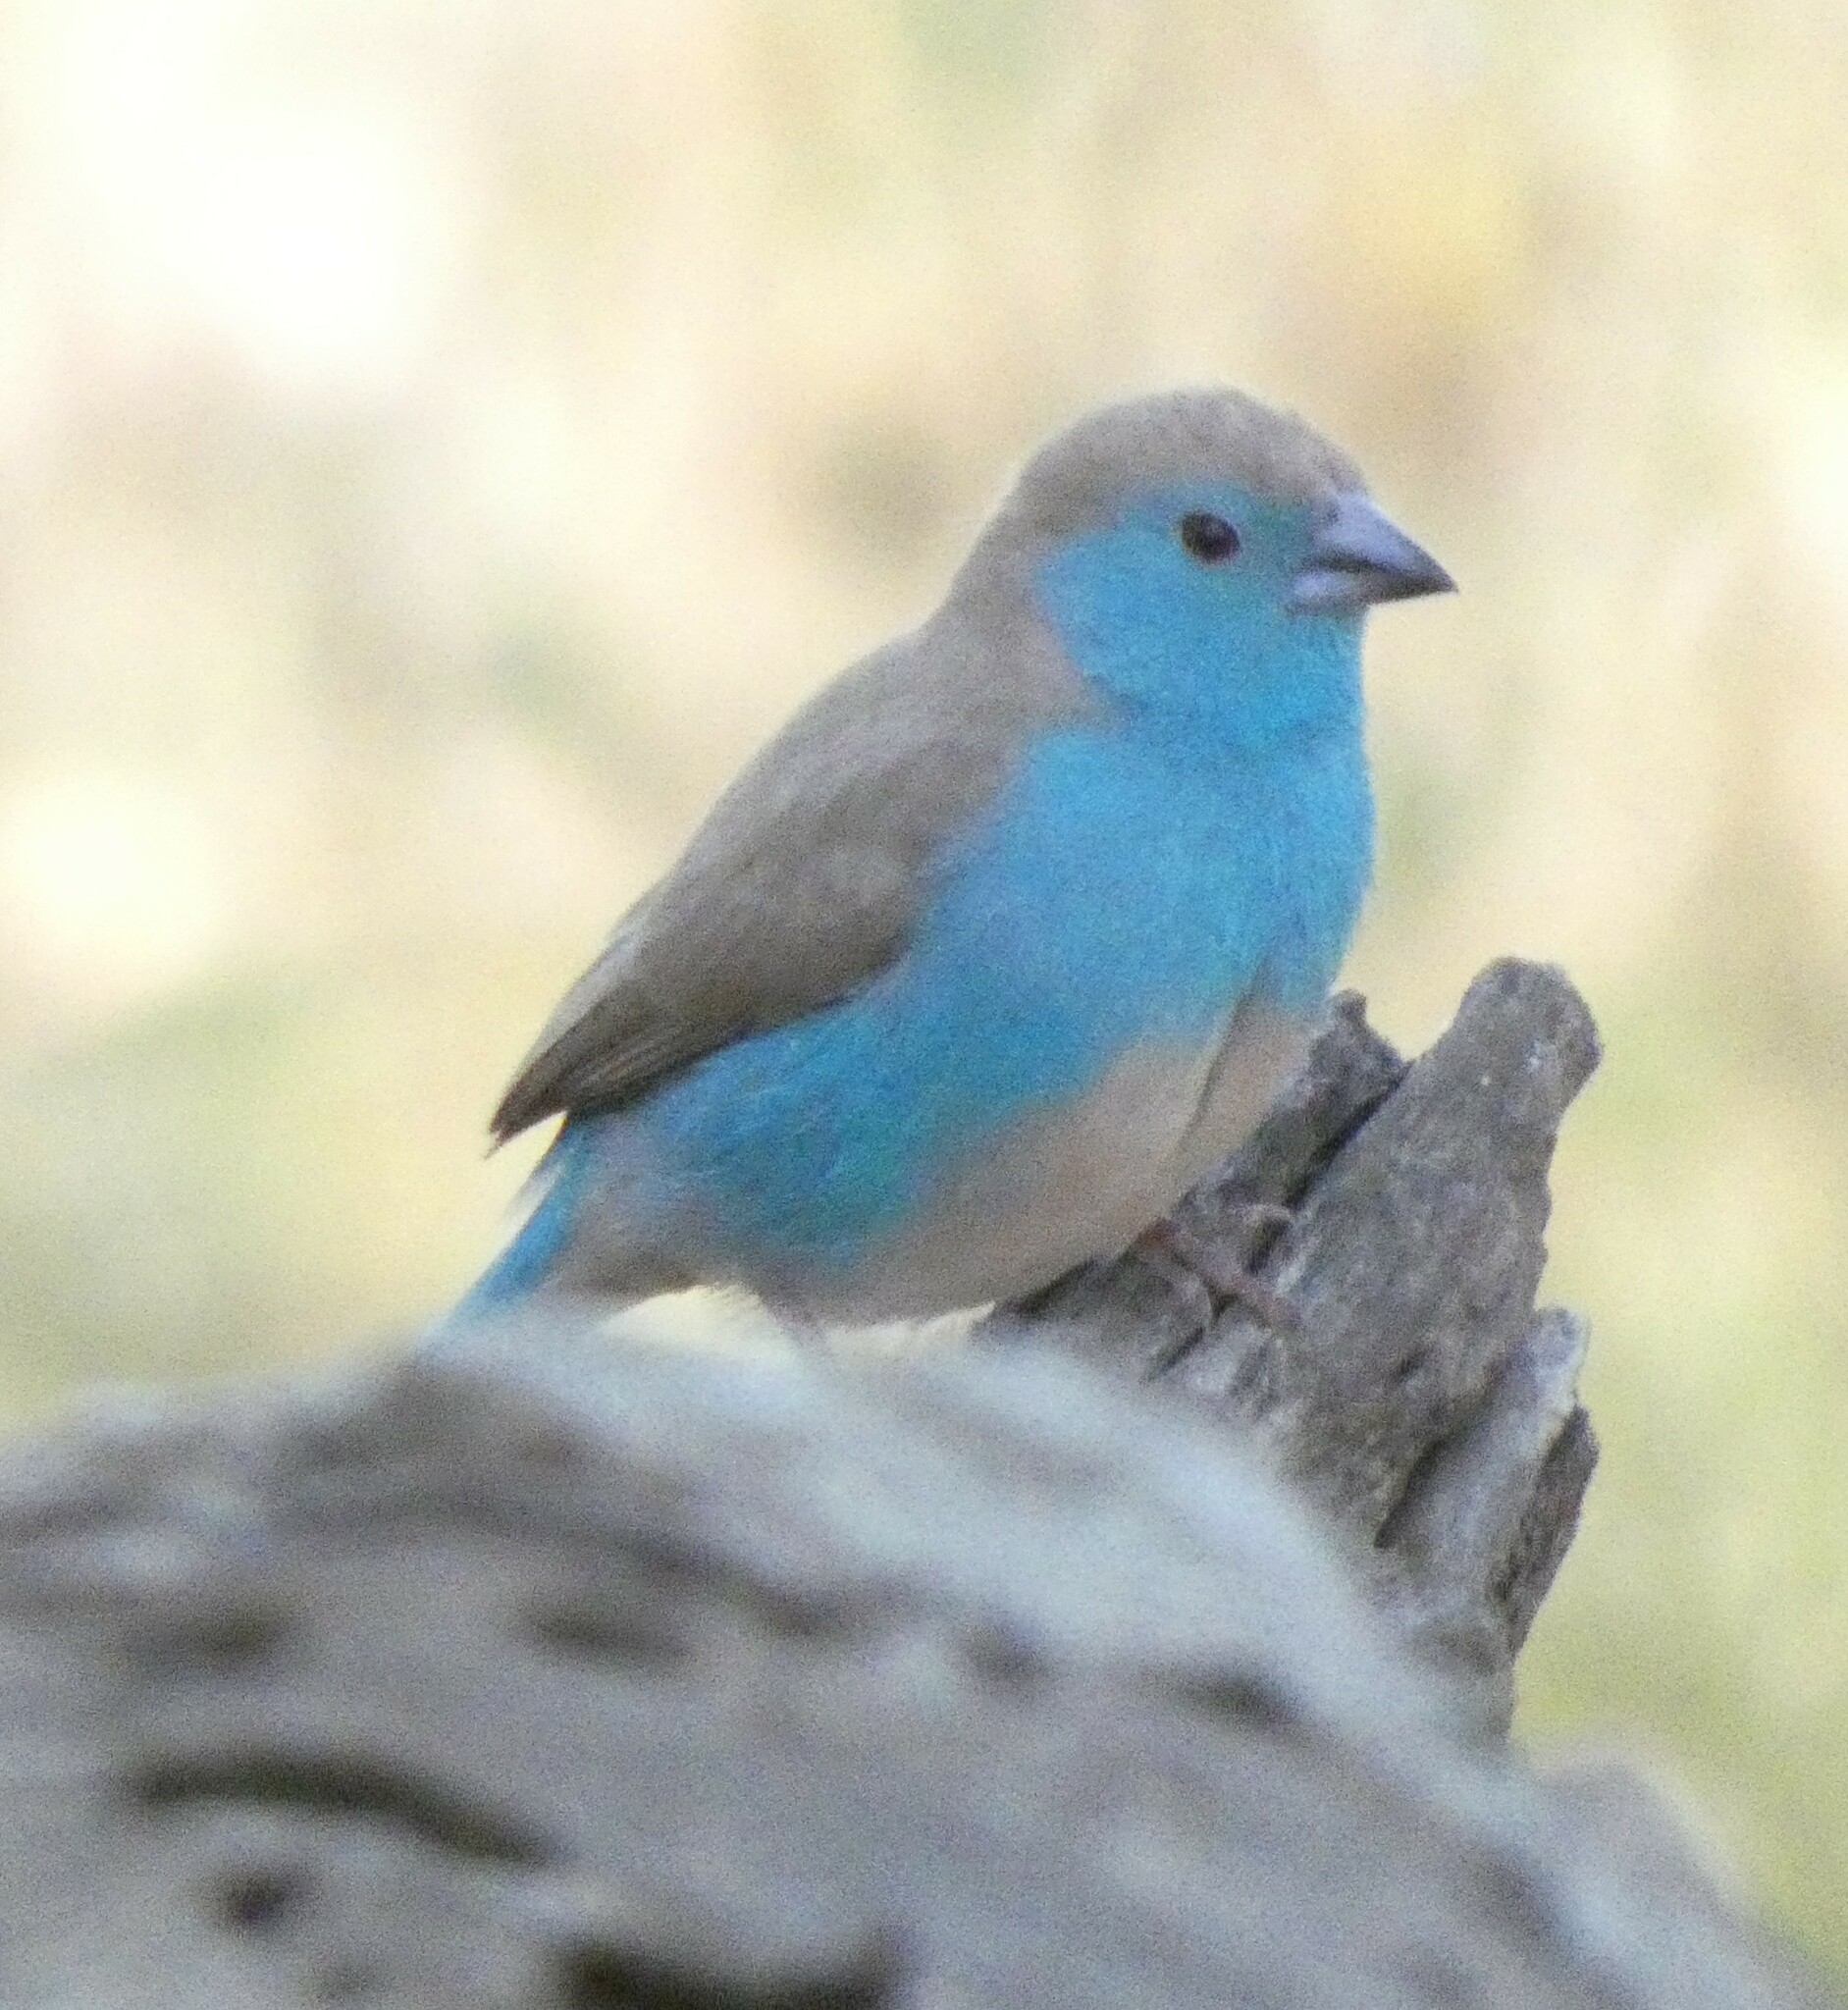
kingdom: Animalia
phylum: Chordata
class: Aves
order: Passeriformes
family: Estrildidae
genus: Uraeginthus
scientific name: Uraeginthus angolensis
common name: Blue waxbill
